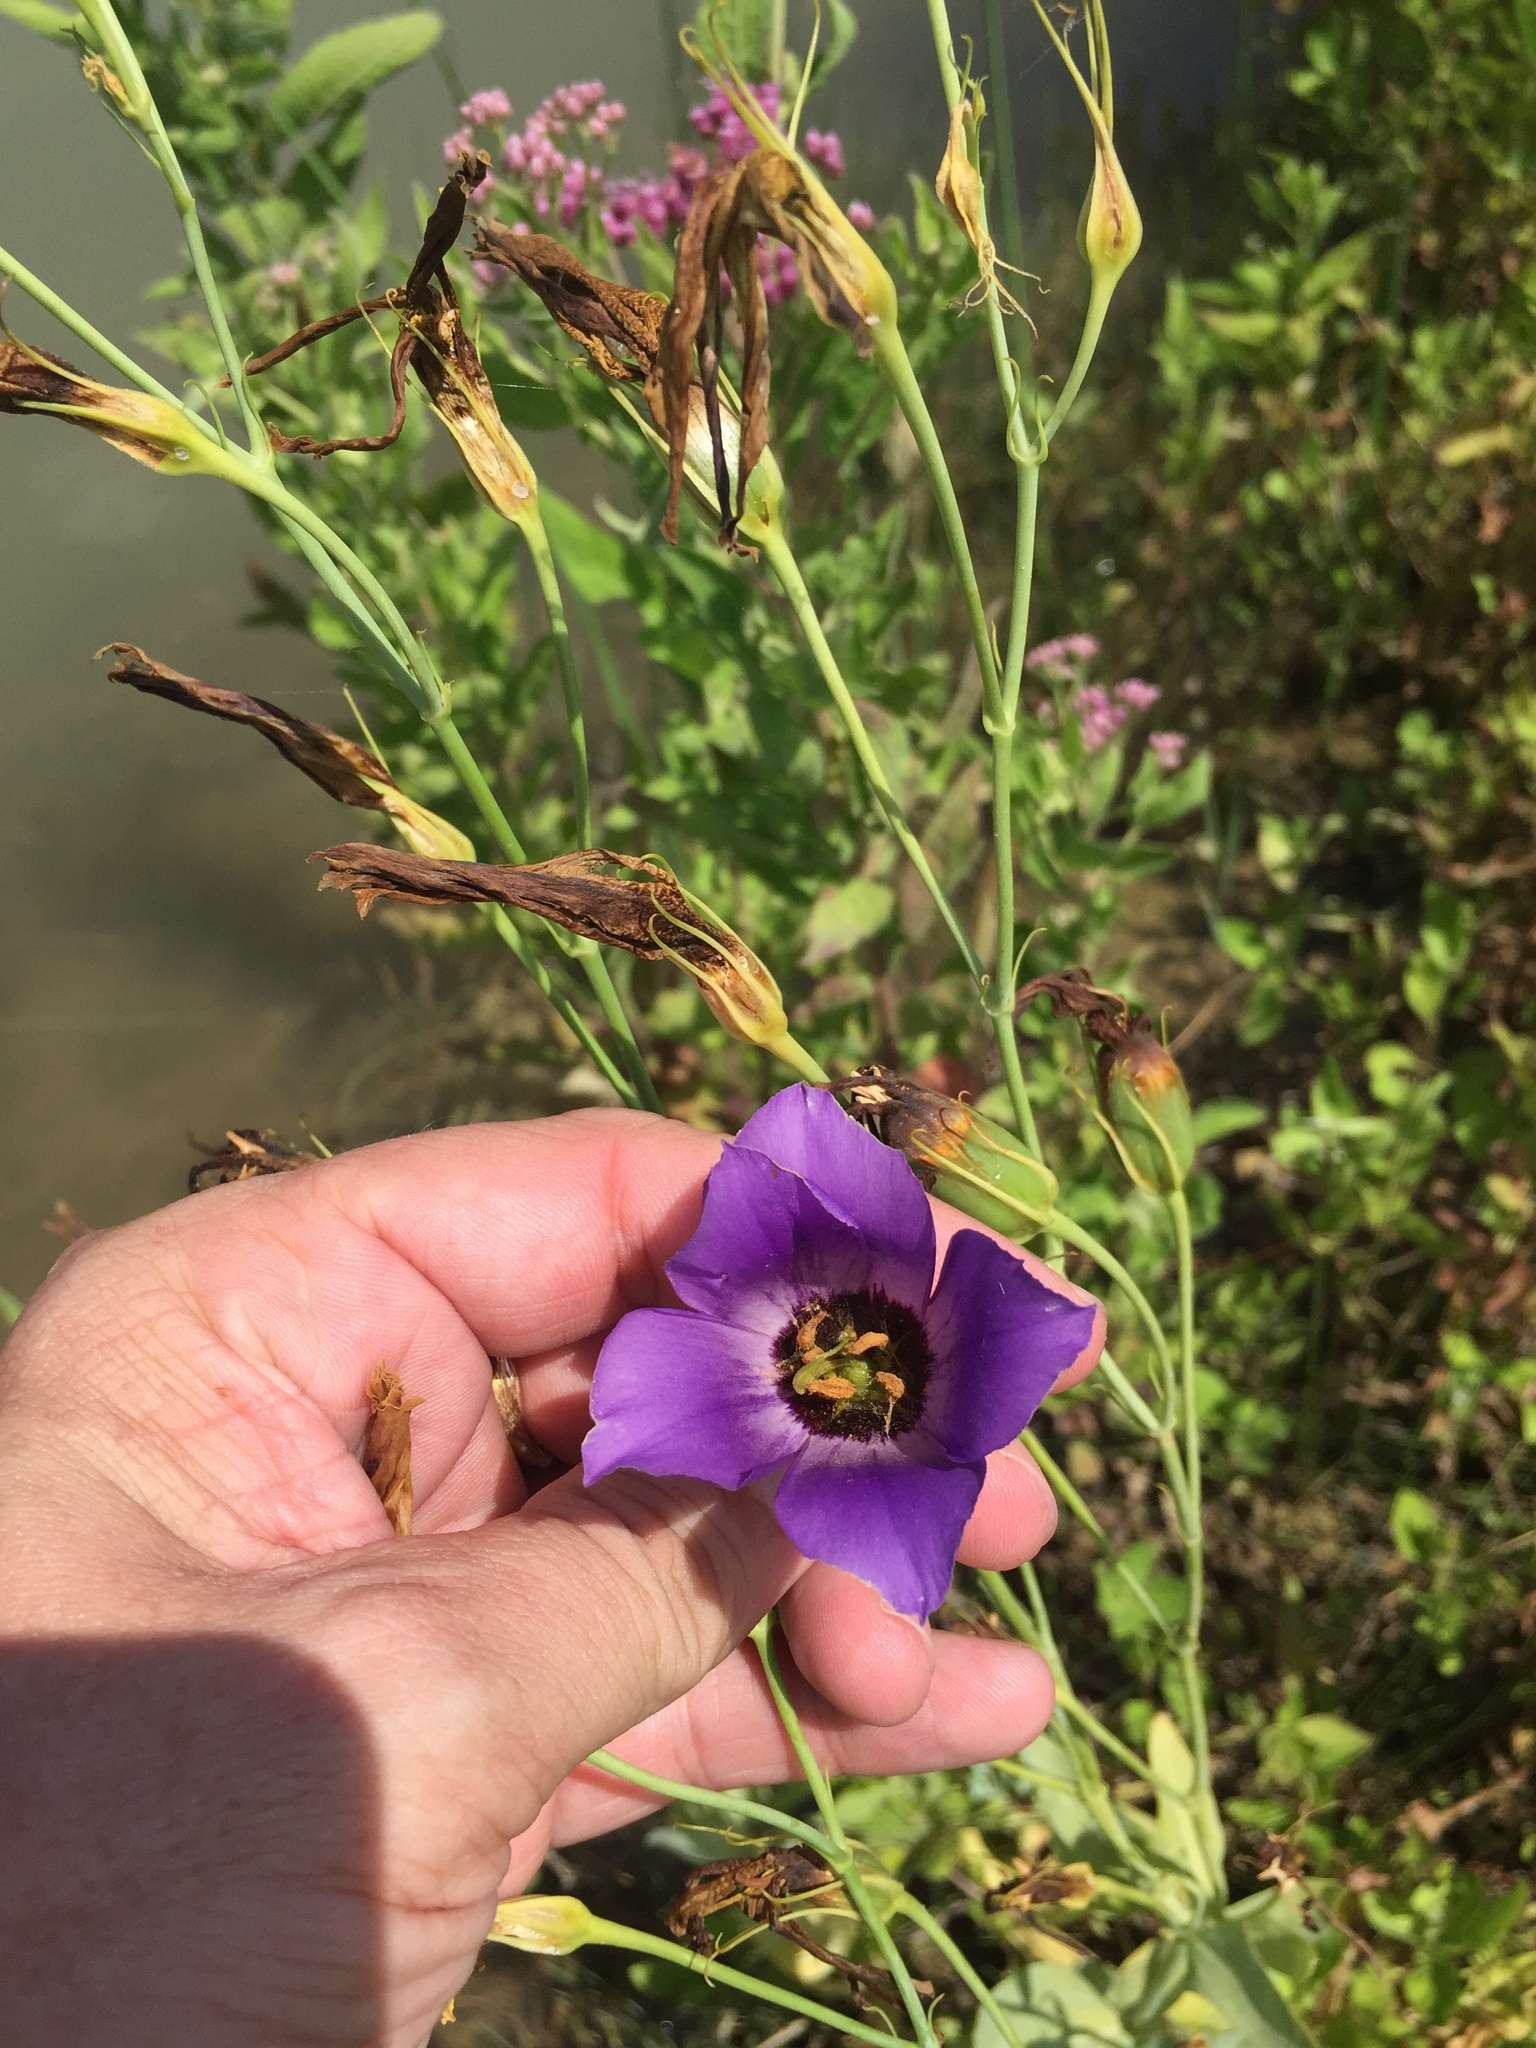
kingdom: Plantae
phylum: Tracheophyta
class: Magnoliopsida
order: Gentianales
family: Gentianaceae
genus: Eustoma
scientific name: Eustoma exaltatum
